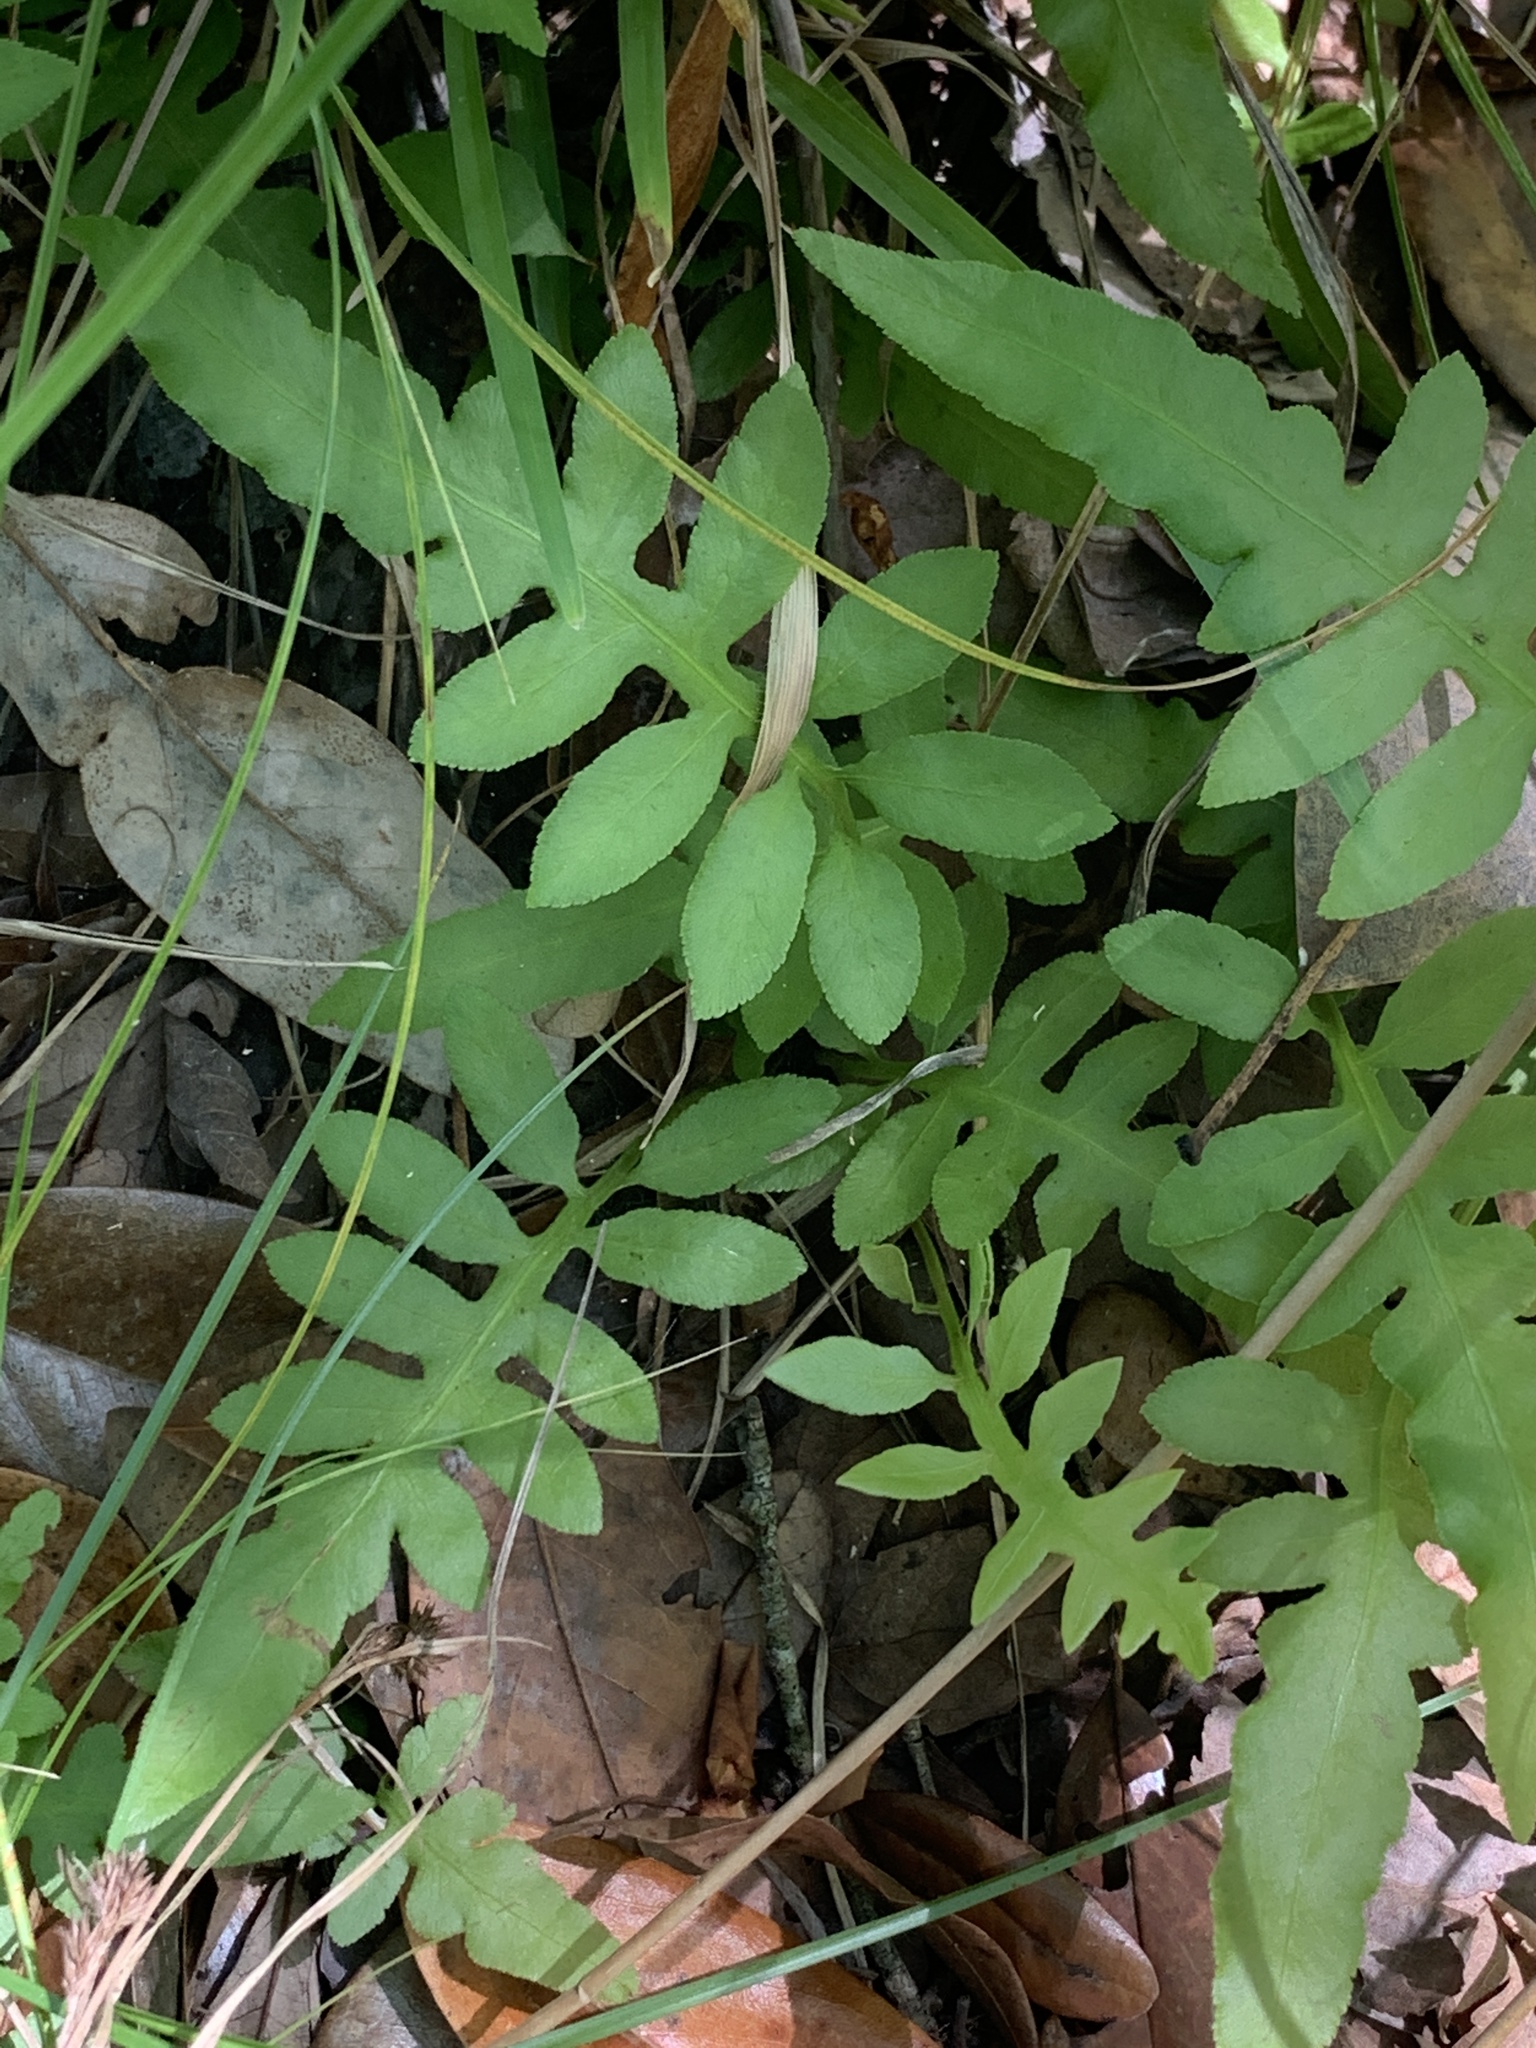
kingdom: Plantae
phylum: Tracheophyta
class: Polypodiopsida
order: Polypodiales
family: Blechnaceae
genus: Lorinseria
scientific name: Lorinseria areolata
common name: Dwarf chain fern
